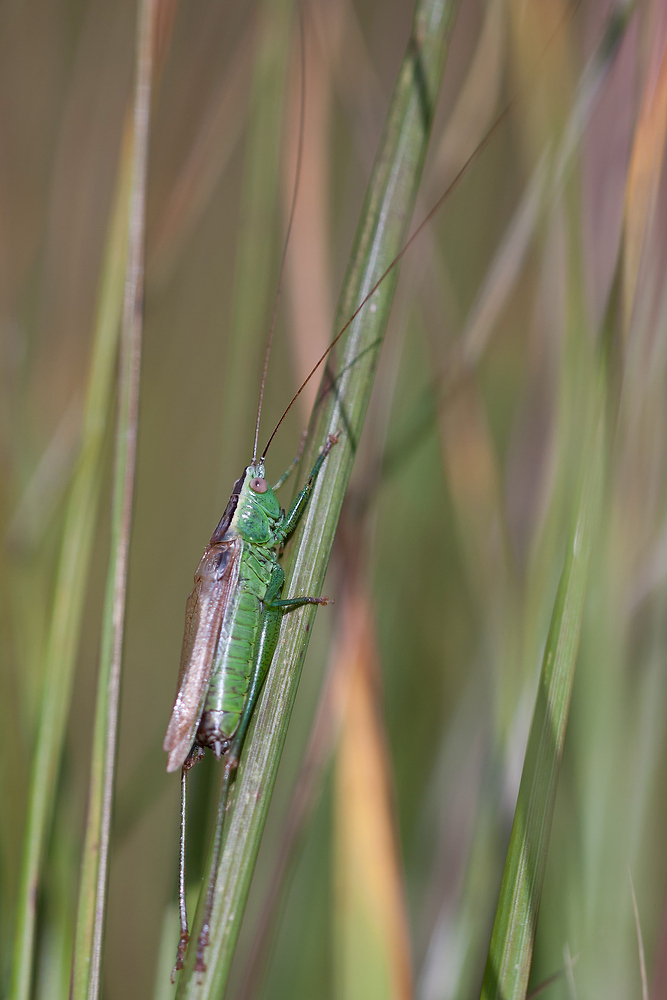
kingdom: Animalia
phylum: Arthropoda
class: Insecta
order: Orthoptera
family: Tettigoniidae
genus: Conocephalus
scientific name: Conocephalus fuscus
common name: Long-winged conehead
